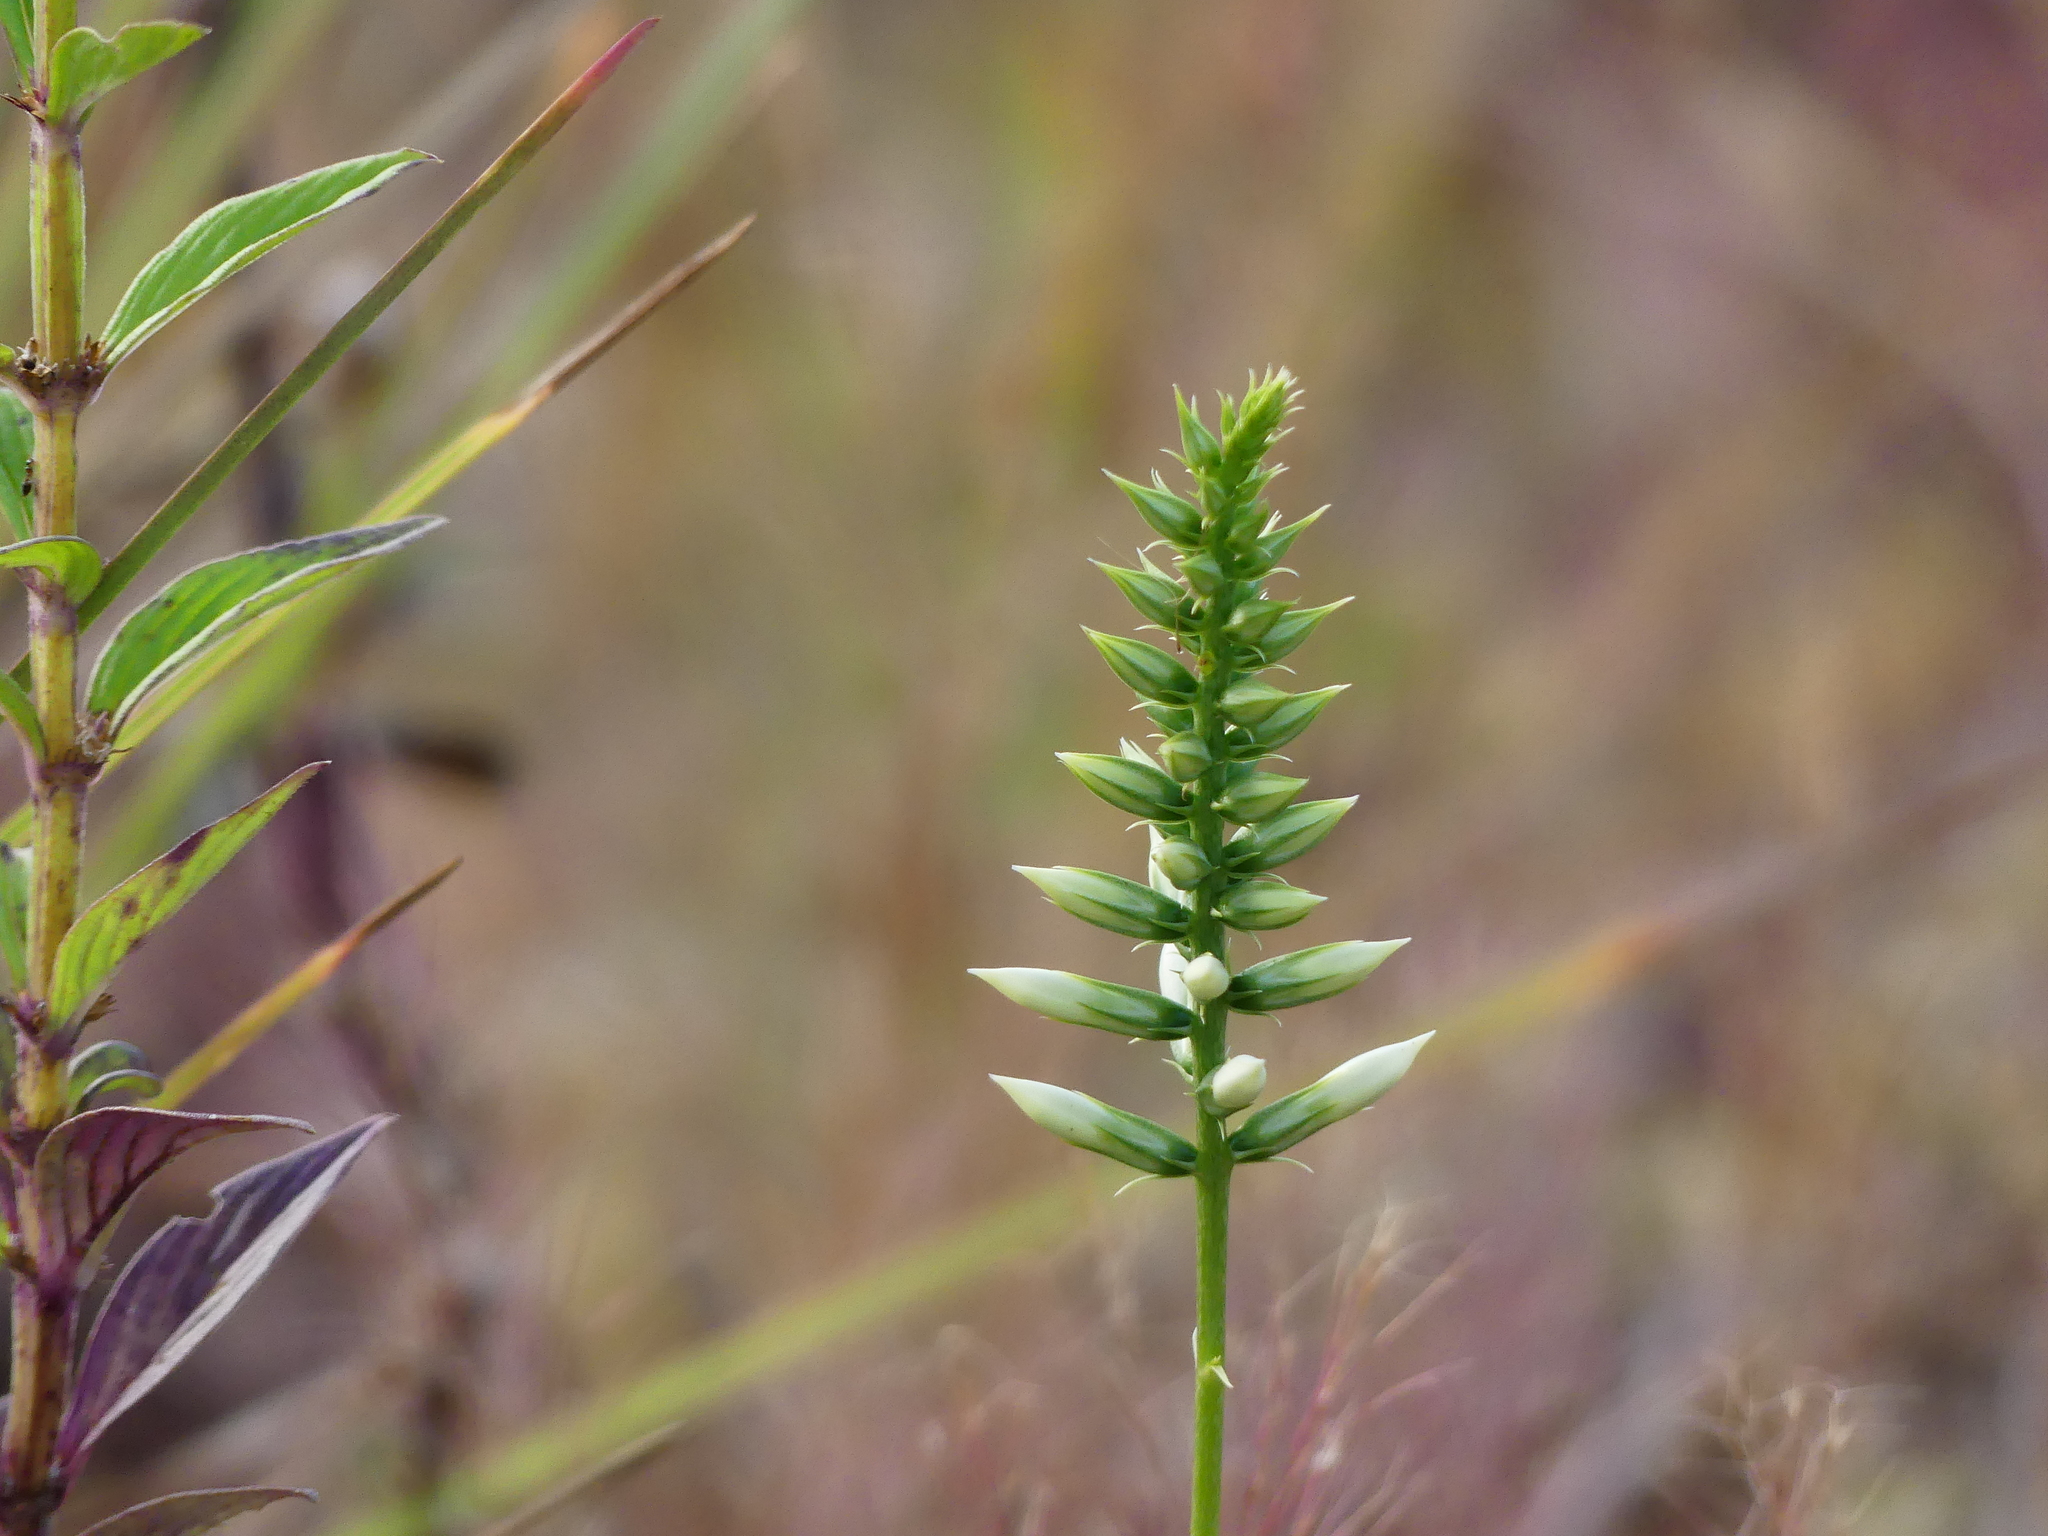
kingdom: Plantae
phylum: Tracheophyta
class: Magnoliopsida
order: Gentianales
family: Gentianaceae
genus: Coutoubea
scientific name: Coutoubea spicata
